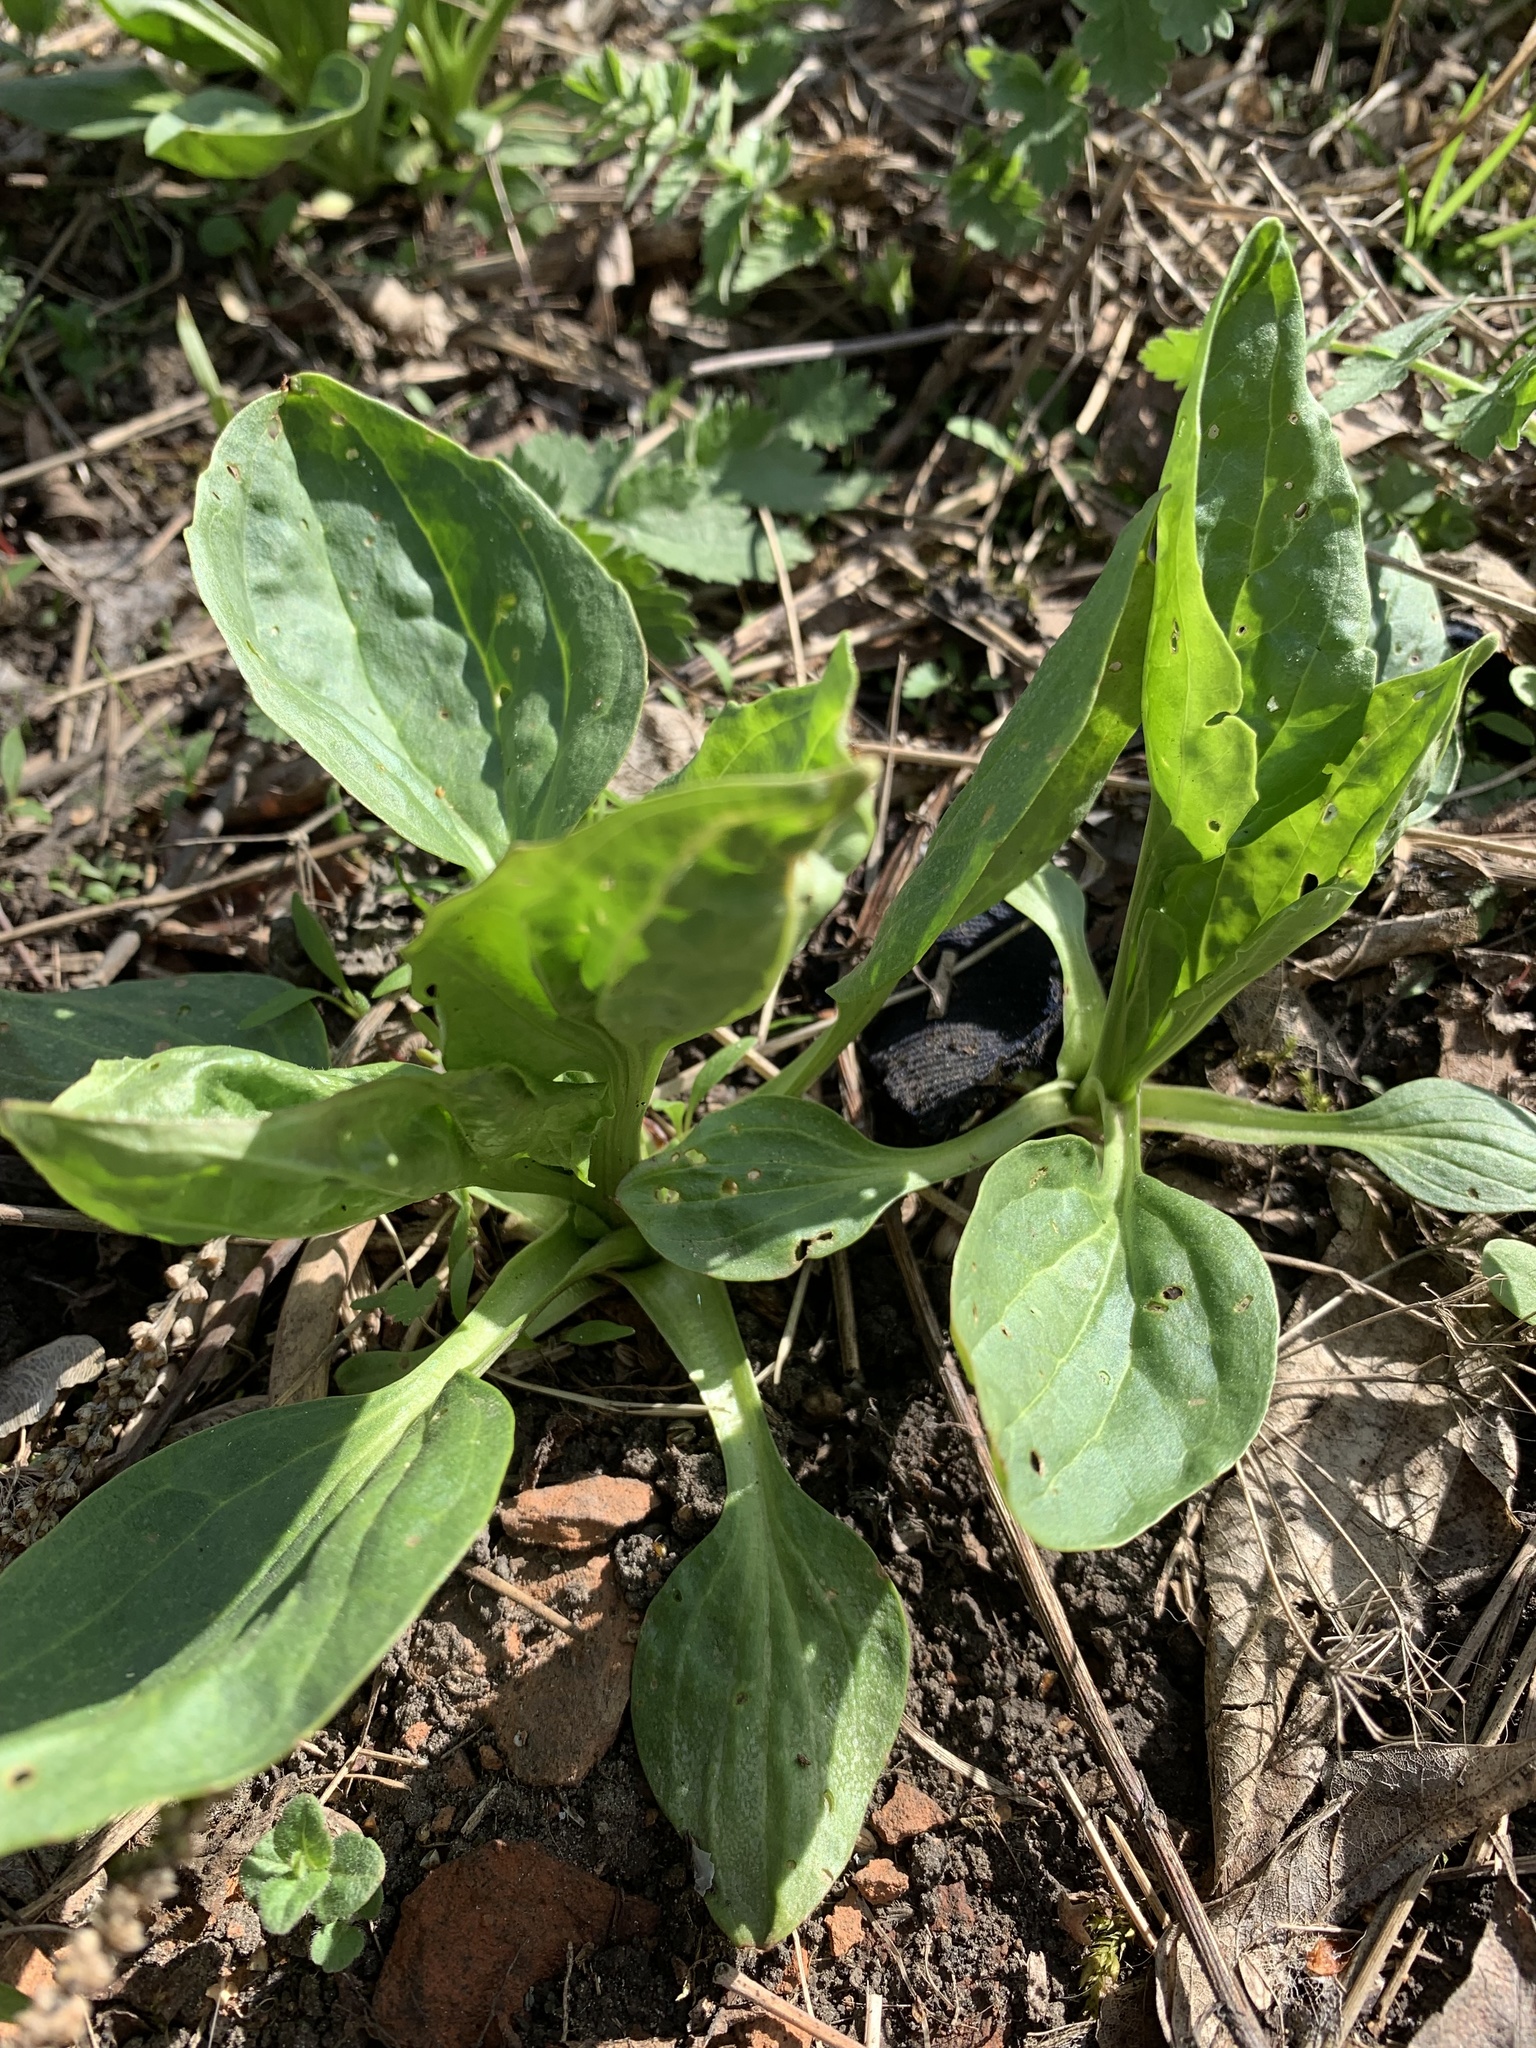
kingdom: Plantae
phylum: Tracheophyta
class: Magnoliopsida
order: Lamiales
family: Plantaginaceae
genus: Plantago
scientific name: Plantago major
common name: Common plantain
